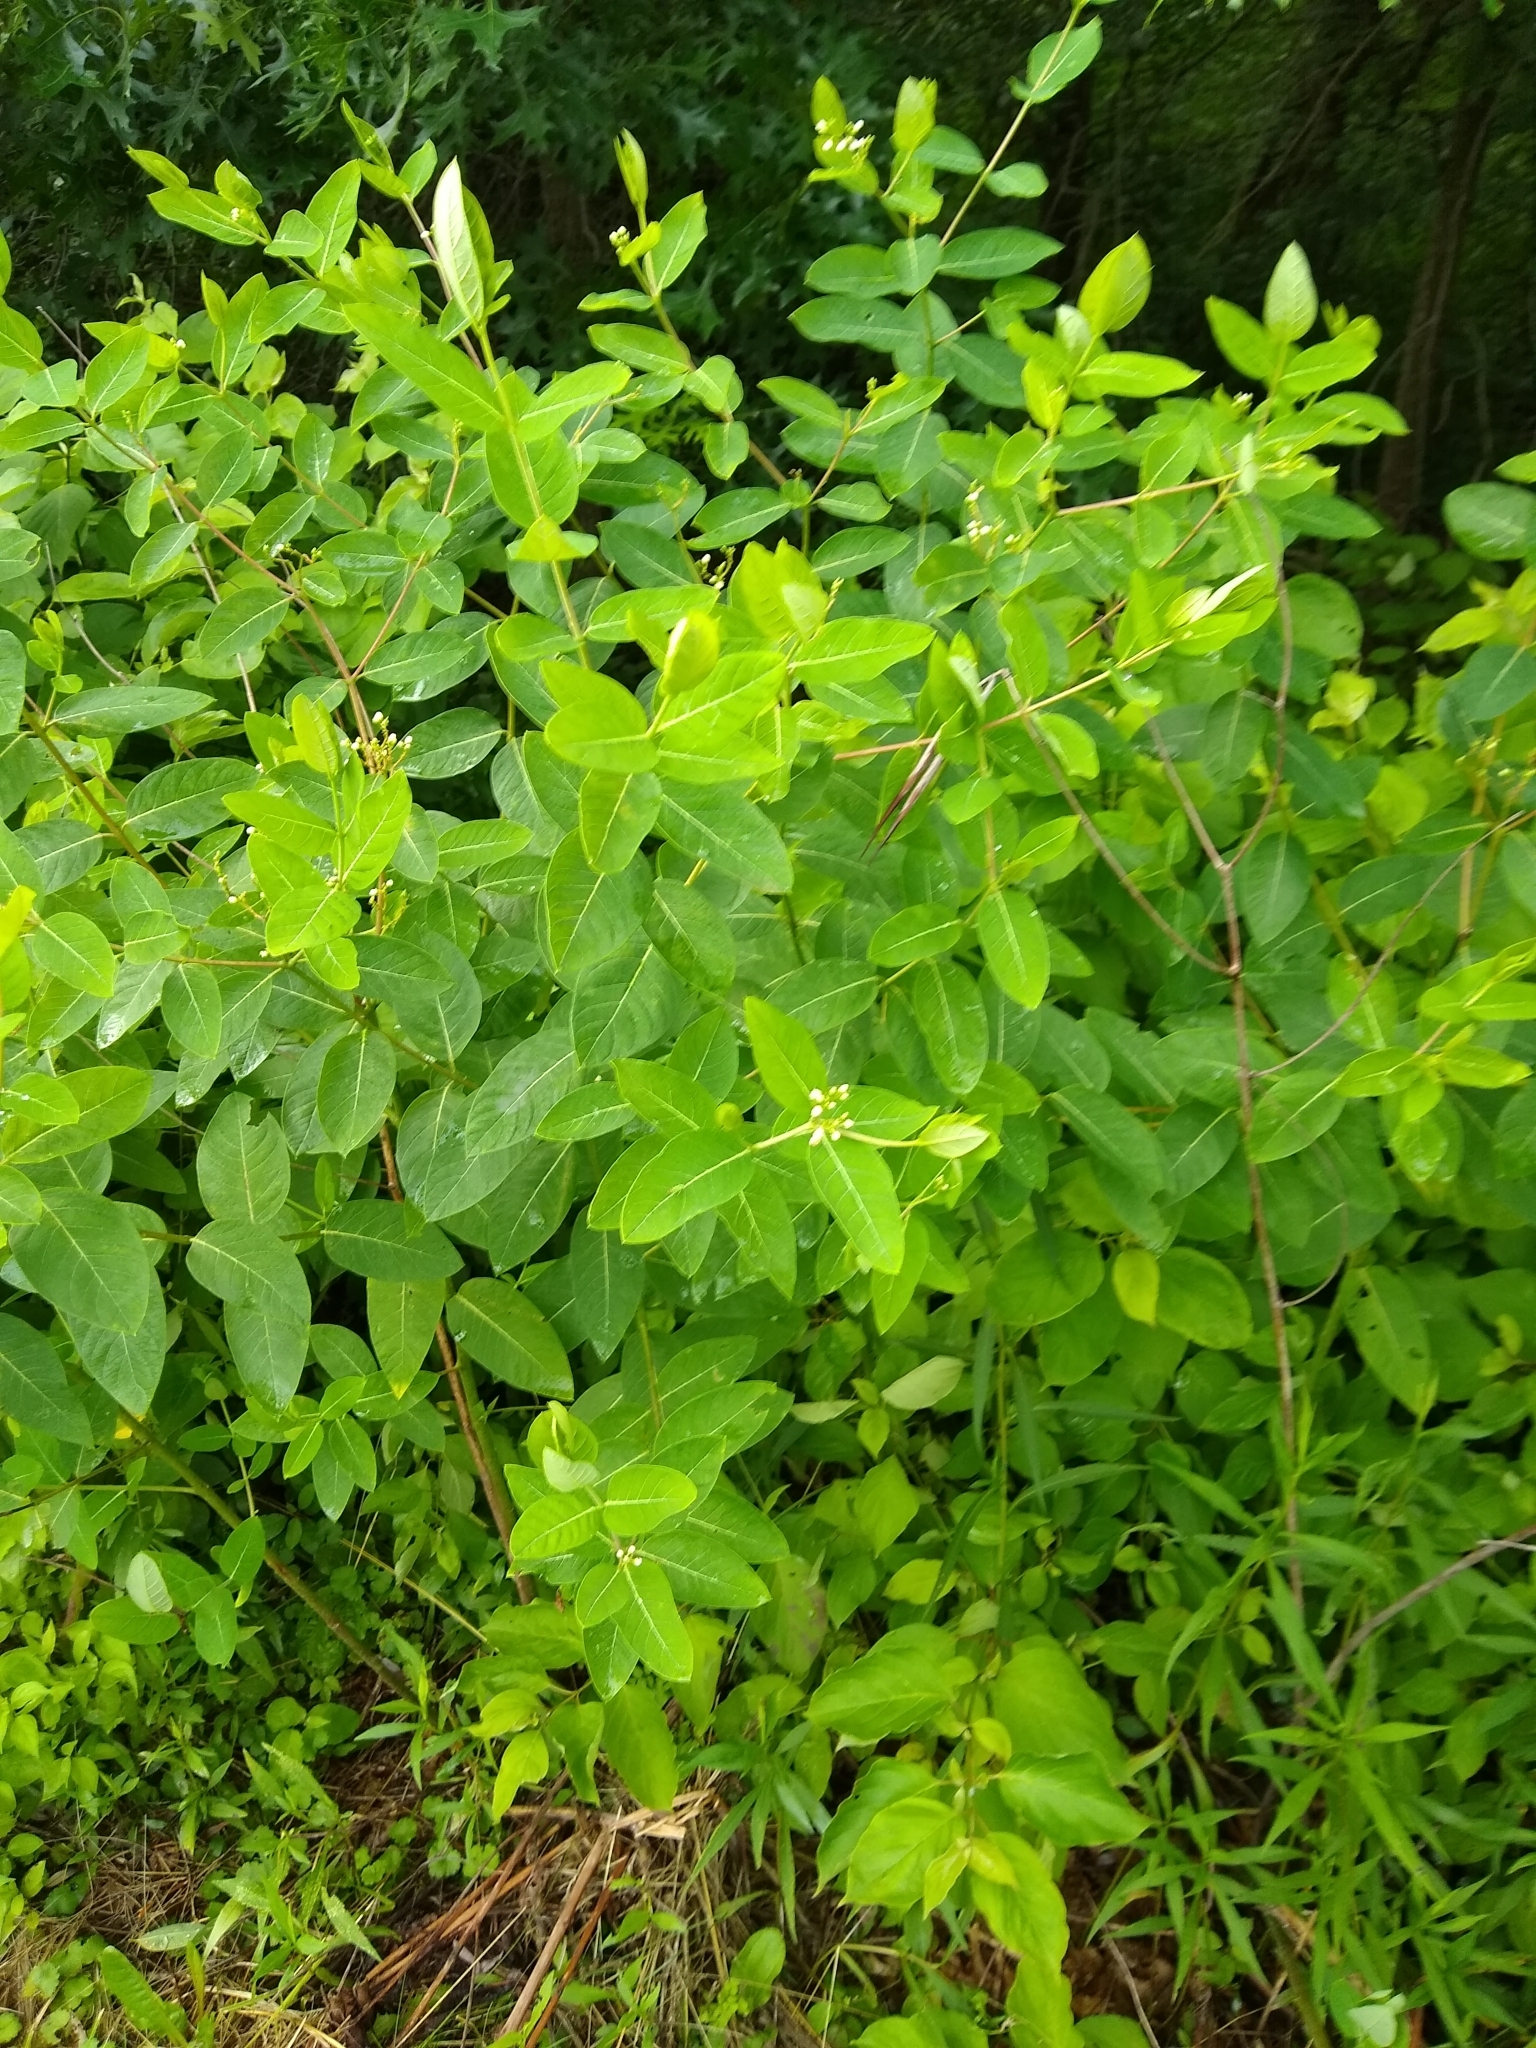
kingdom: Plantae
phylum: Tracheophyta
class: Magnoliopsida
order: Gentianales
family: Apocynaceae
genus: Apocynum
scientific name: Apocynum cannabinum
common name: Hemp dogbane
